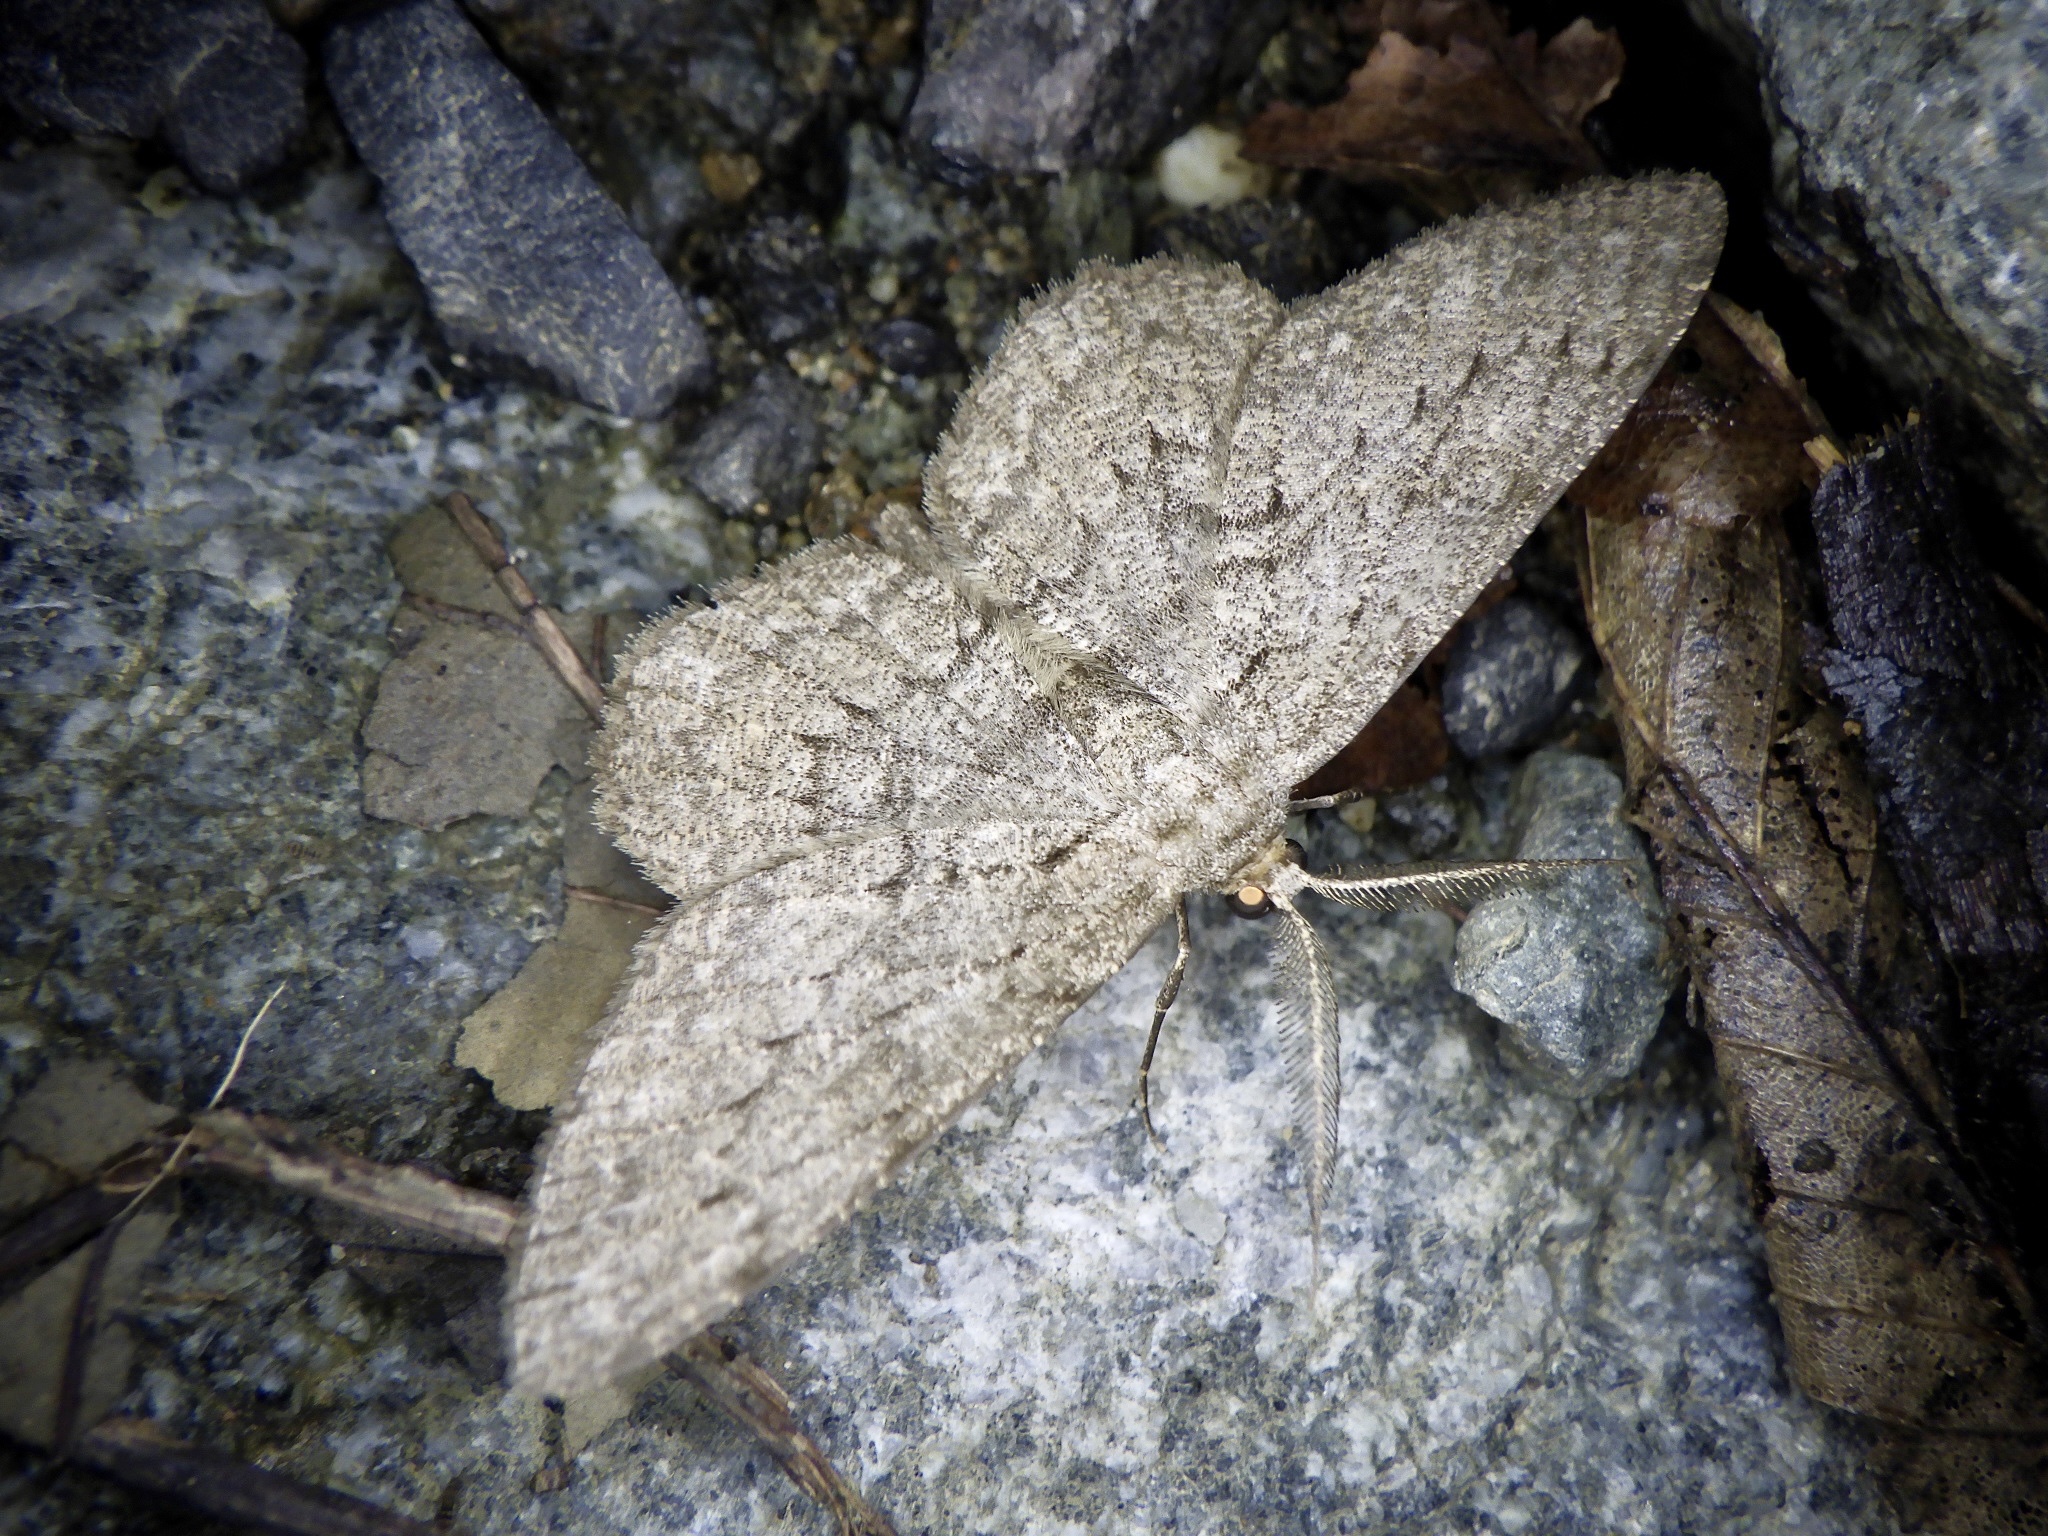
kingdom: Animalia
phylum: Arthropoda
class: Insecta
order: Lepidoptera
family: Geometridae
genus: Hypomecis
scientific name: Hypomecis punctinalis
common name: Pale oak beauty
